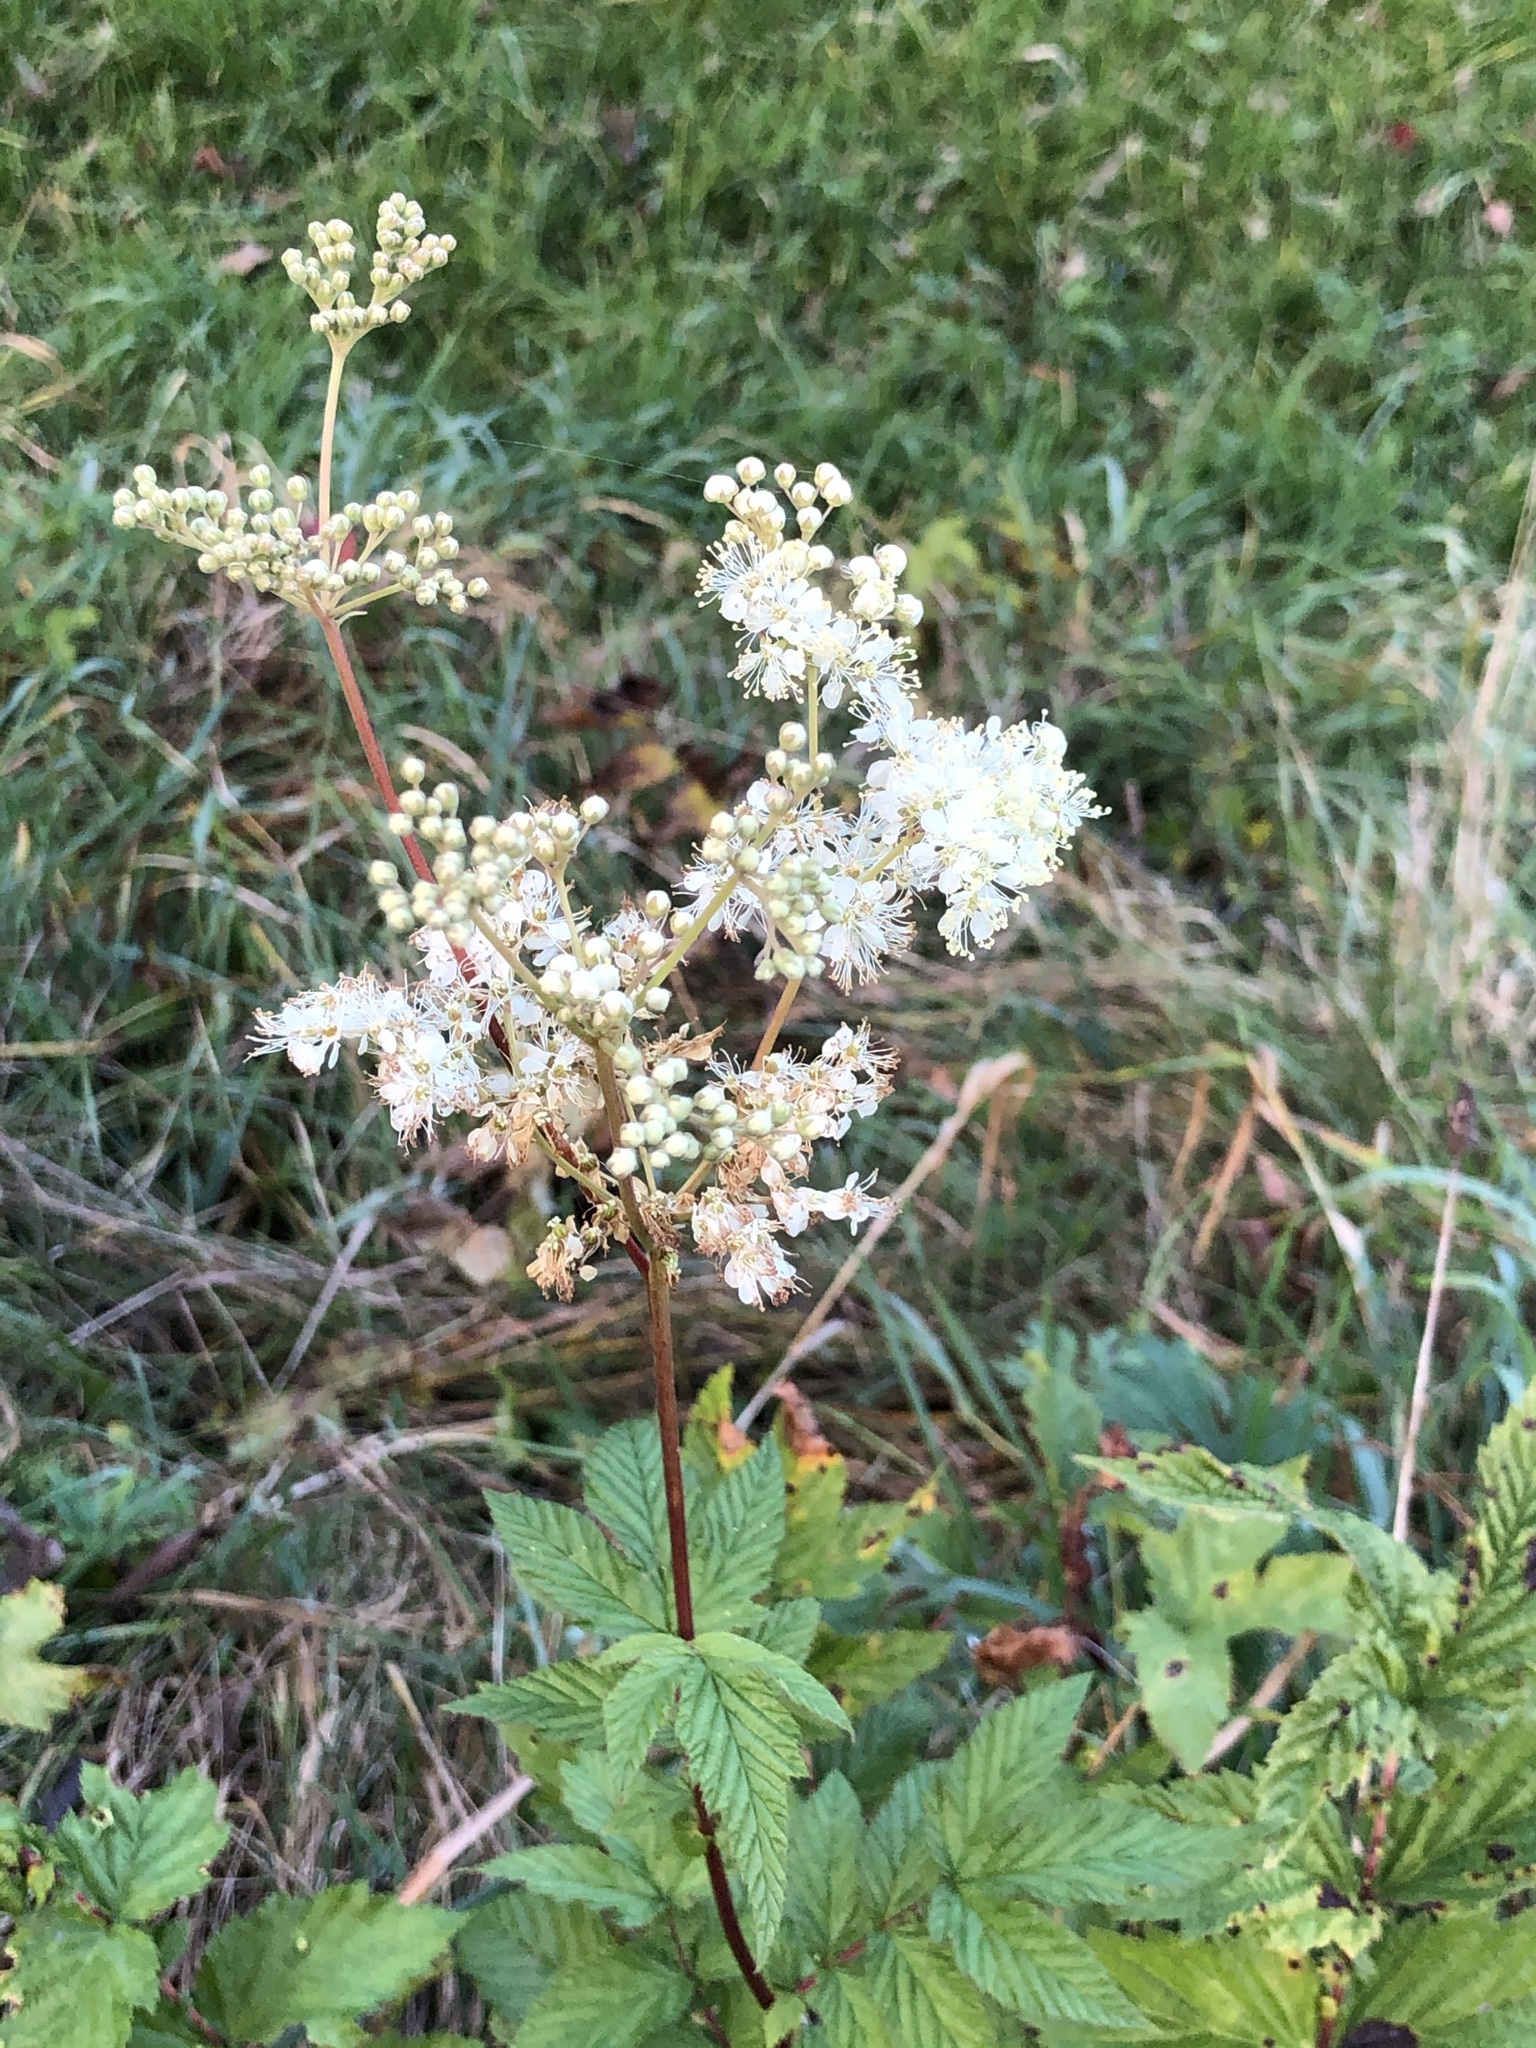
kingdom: Plantae
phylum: Tracheophyta
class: Magnoliopsida
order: Rosales
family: Rosaceae
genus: Filipendula
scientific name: Filipendula ulmaria
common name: Meadowsweet
